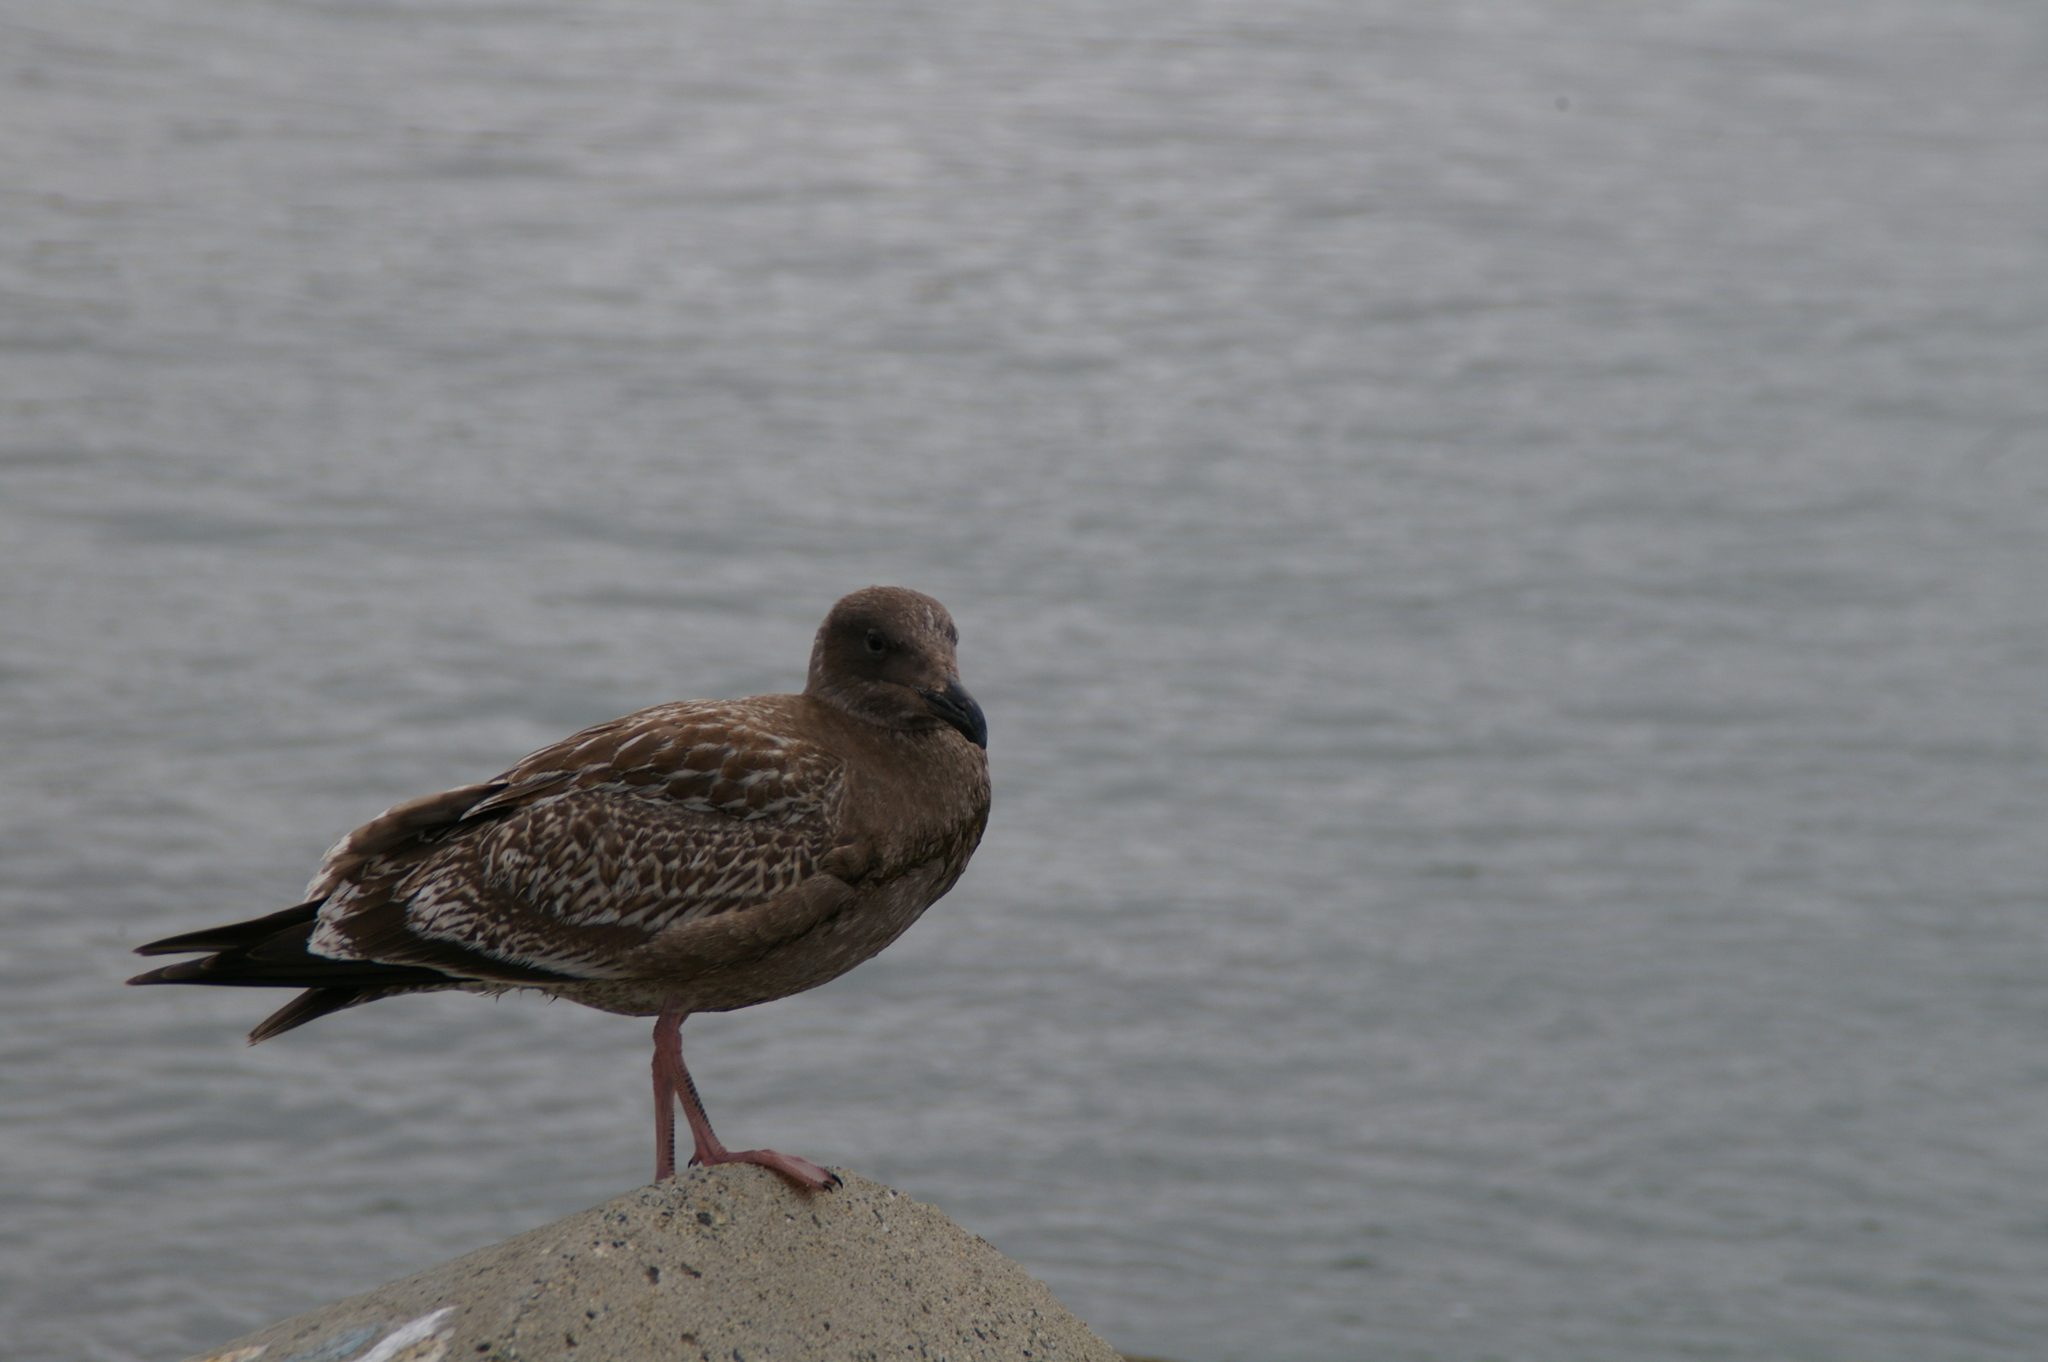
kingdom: Animalia
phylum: Chordata
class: Aves
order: Charadriiformes
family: Laridae
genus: Larus
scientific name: Larus occidentalis
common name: Western gull
